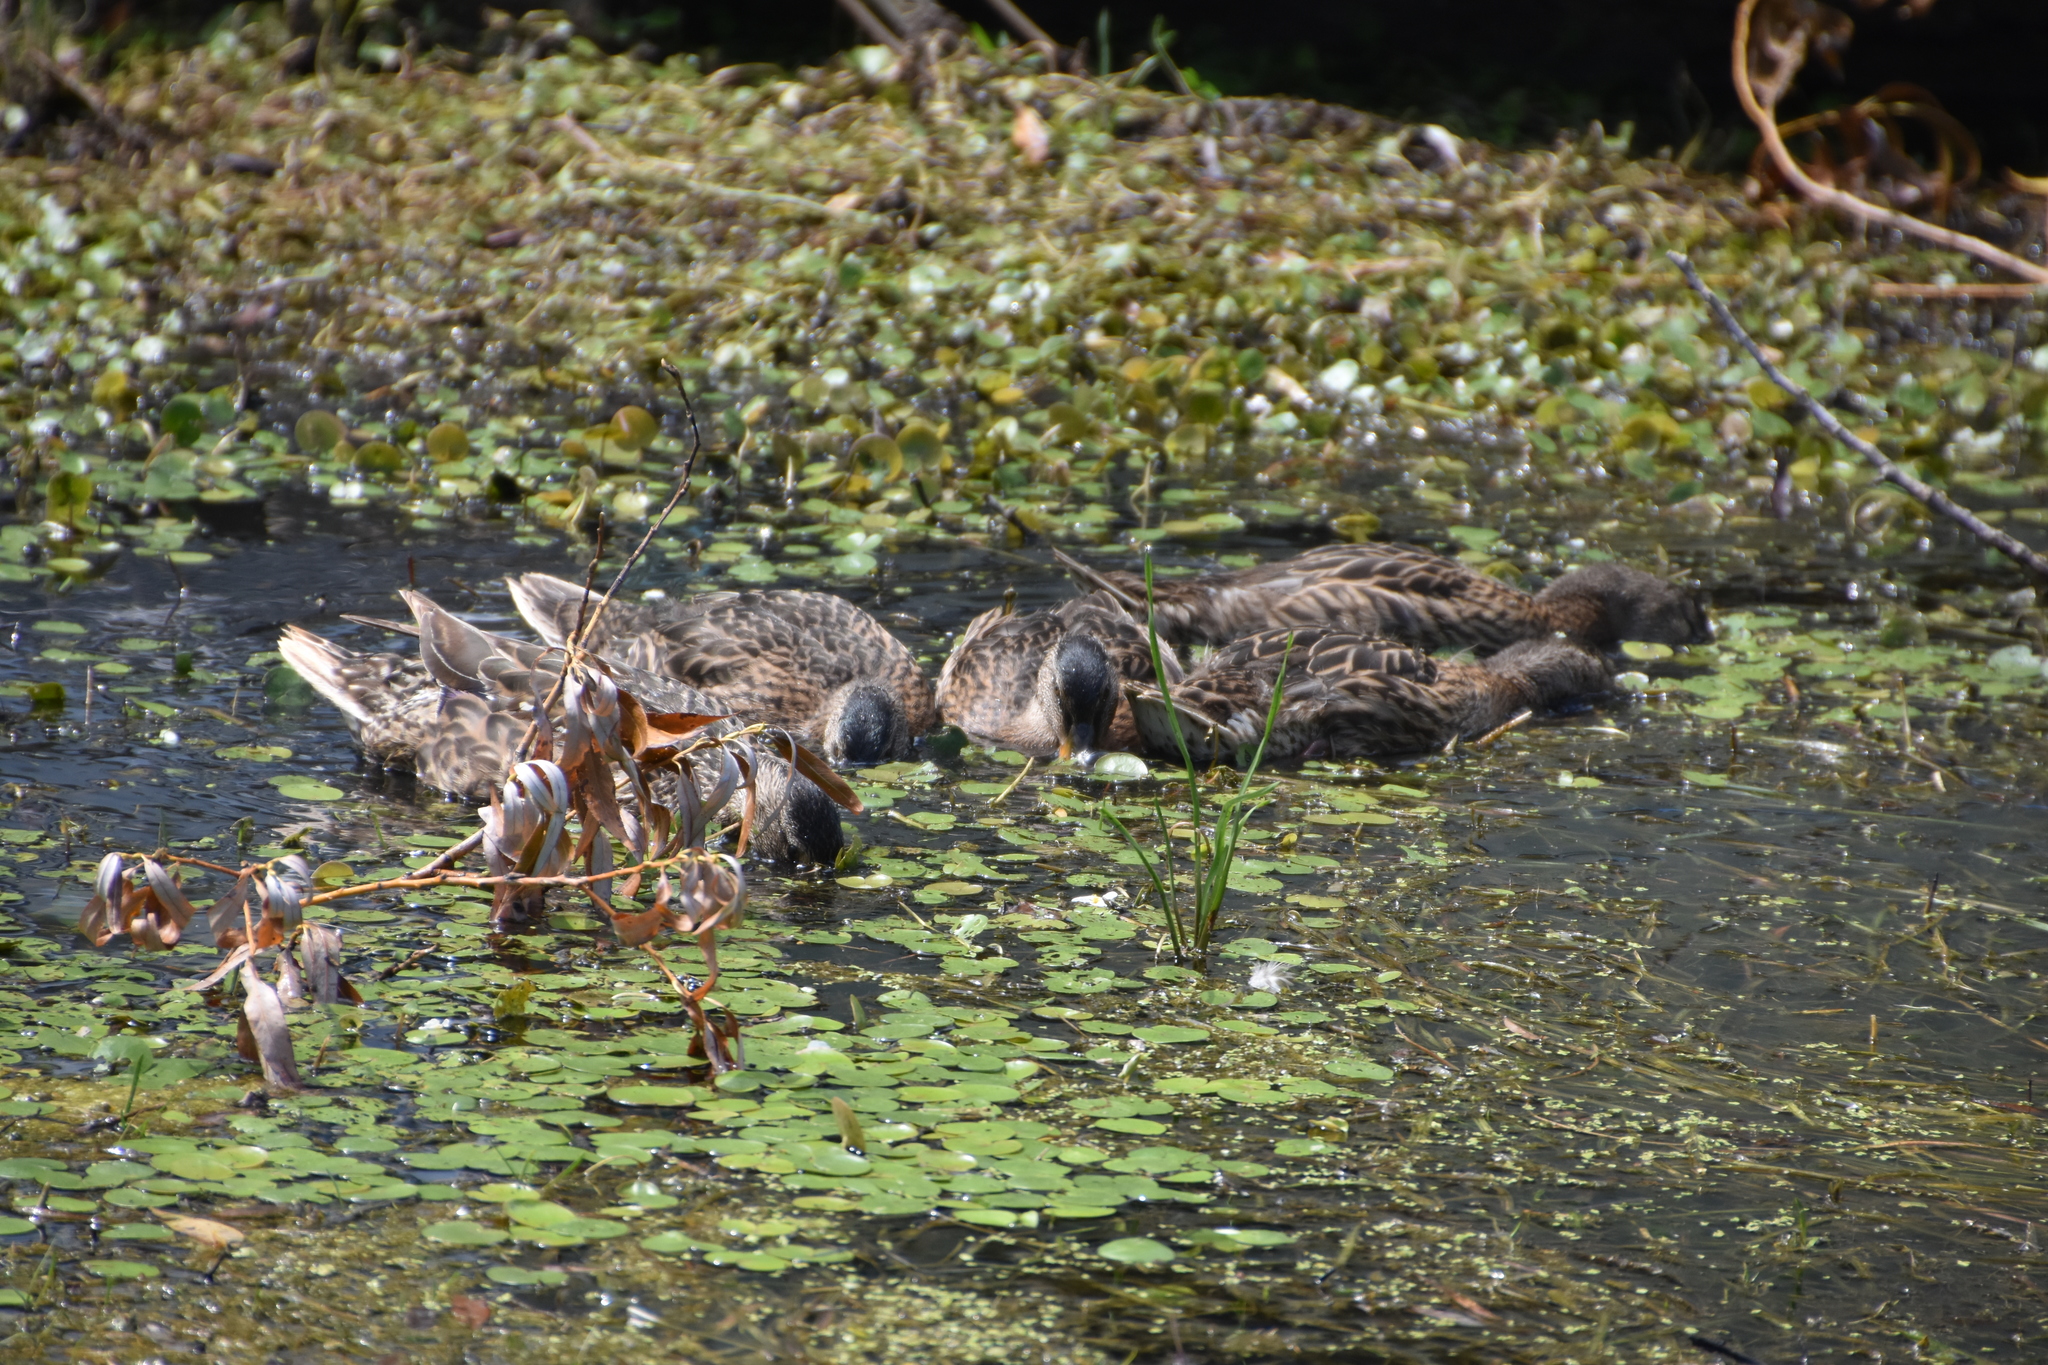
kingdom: Animalia
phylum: Chordata
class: Aves
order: Anseriformes
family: Anatidae
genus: Anas
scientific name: Anas platyrhynchos
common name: Mallard
